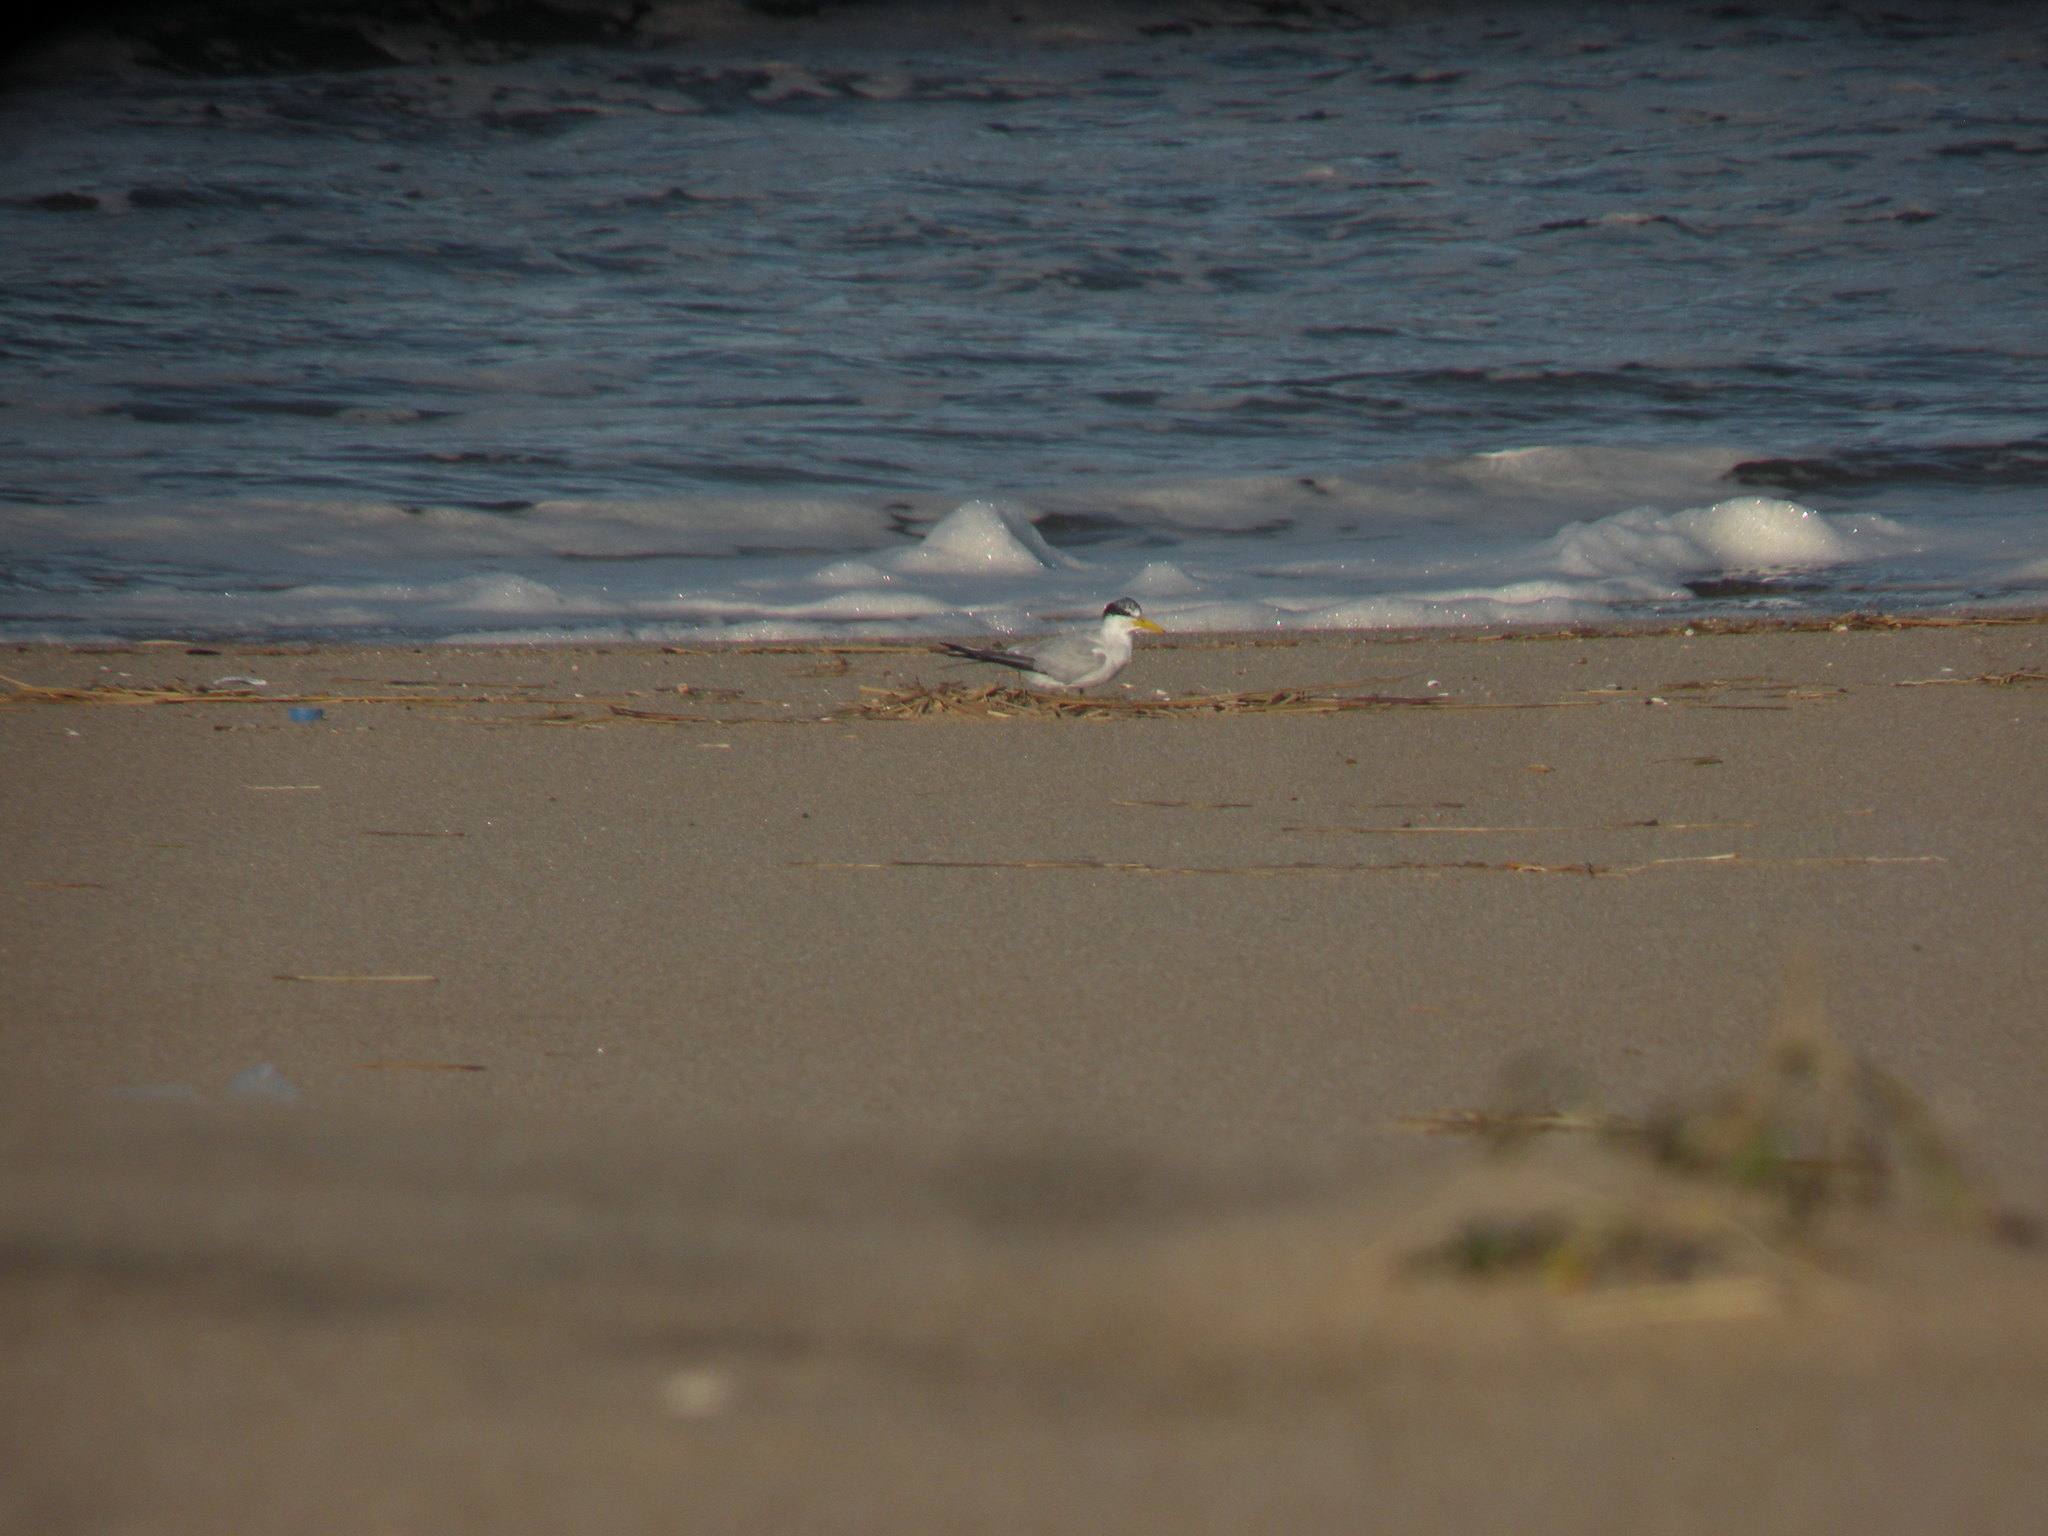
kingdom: Animalia
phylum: Chordata
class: Aves
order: Charadriiformes
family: Laridae
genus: Sternula
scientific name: Sternula superciliaris
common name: Yellow-billed tern
